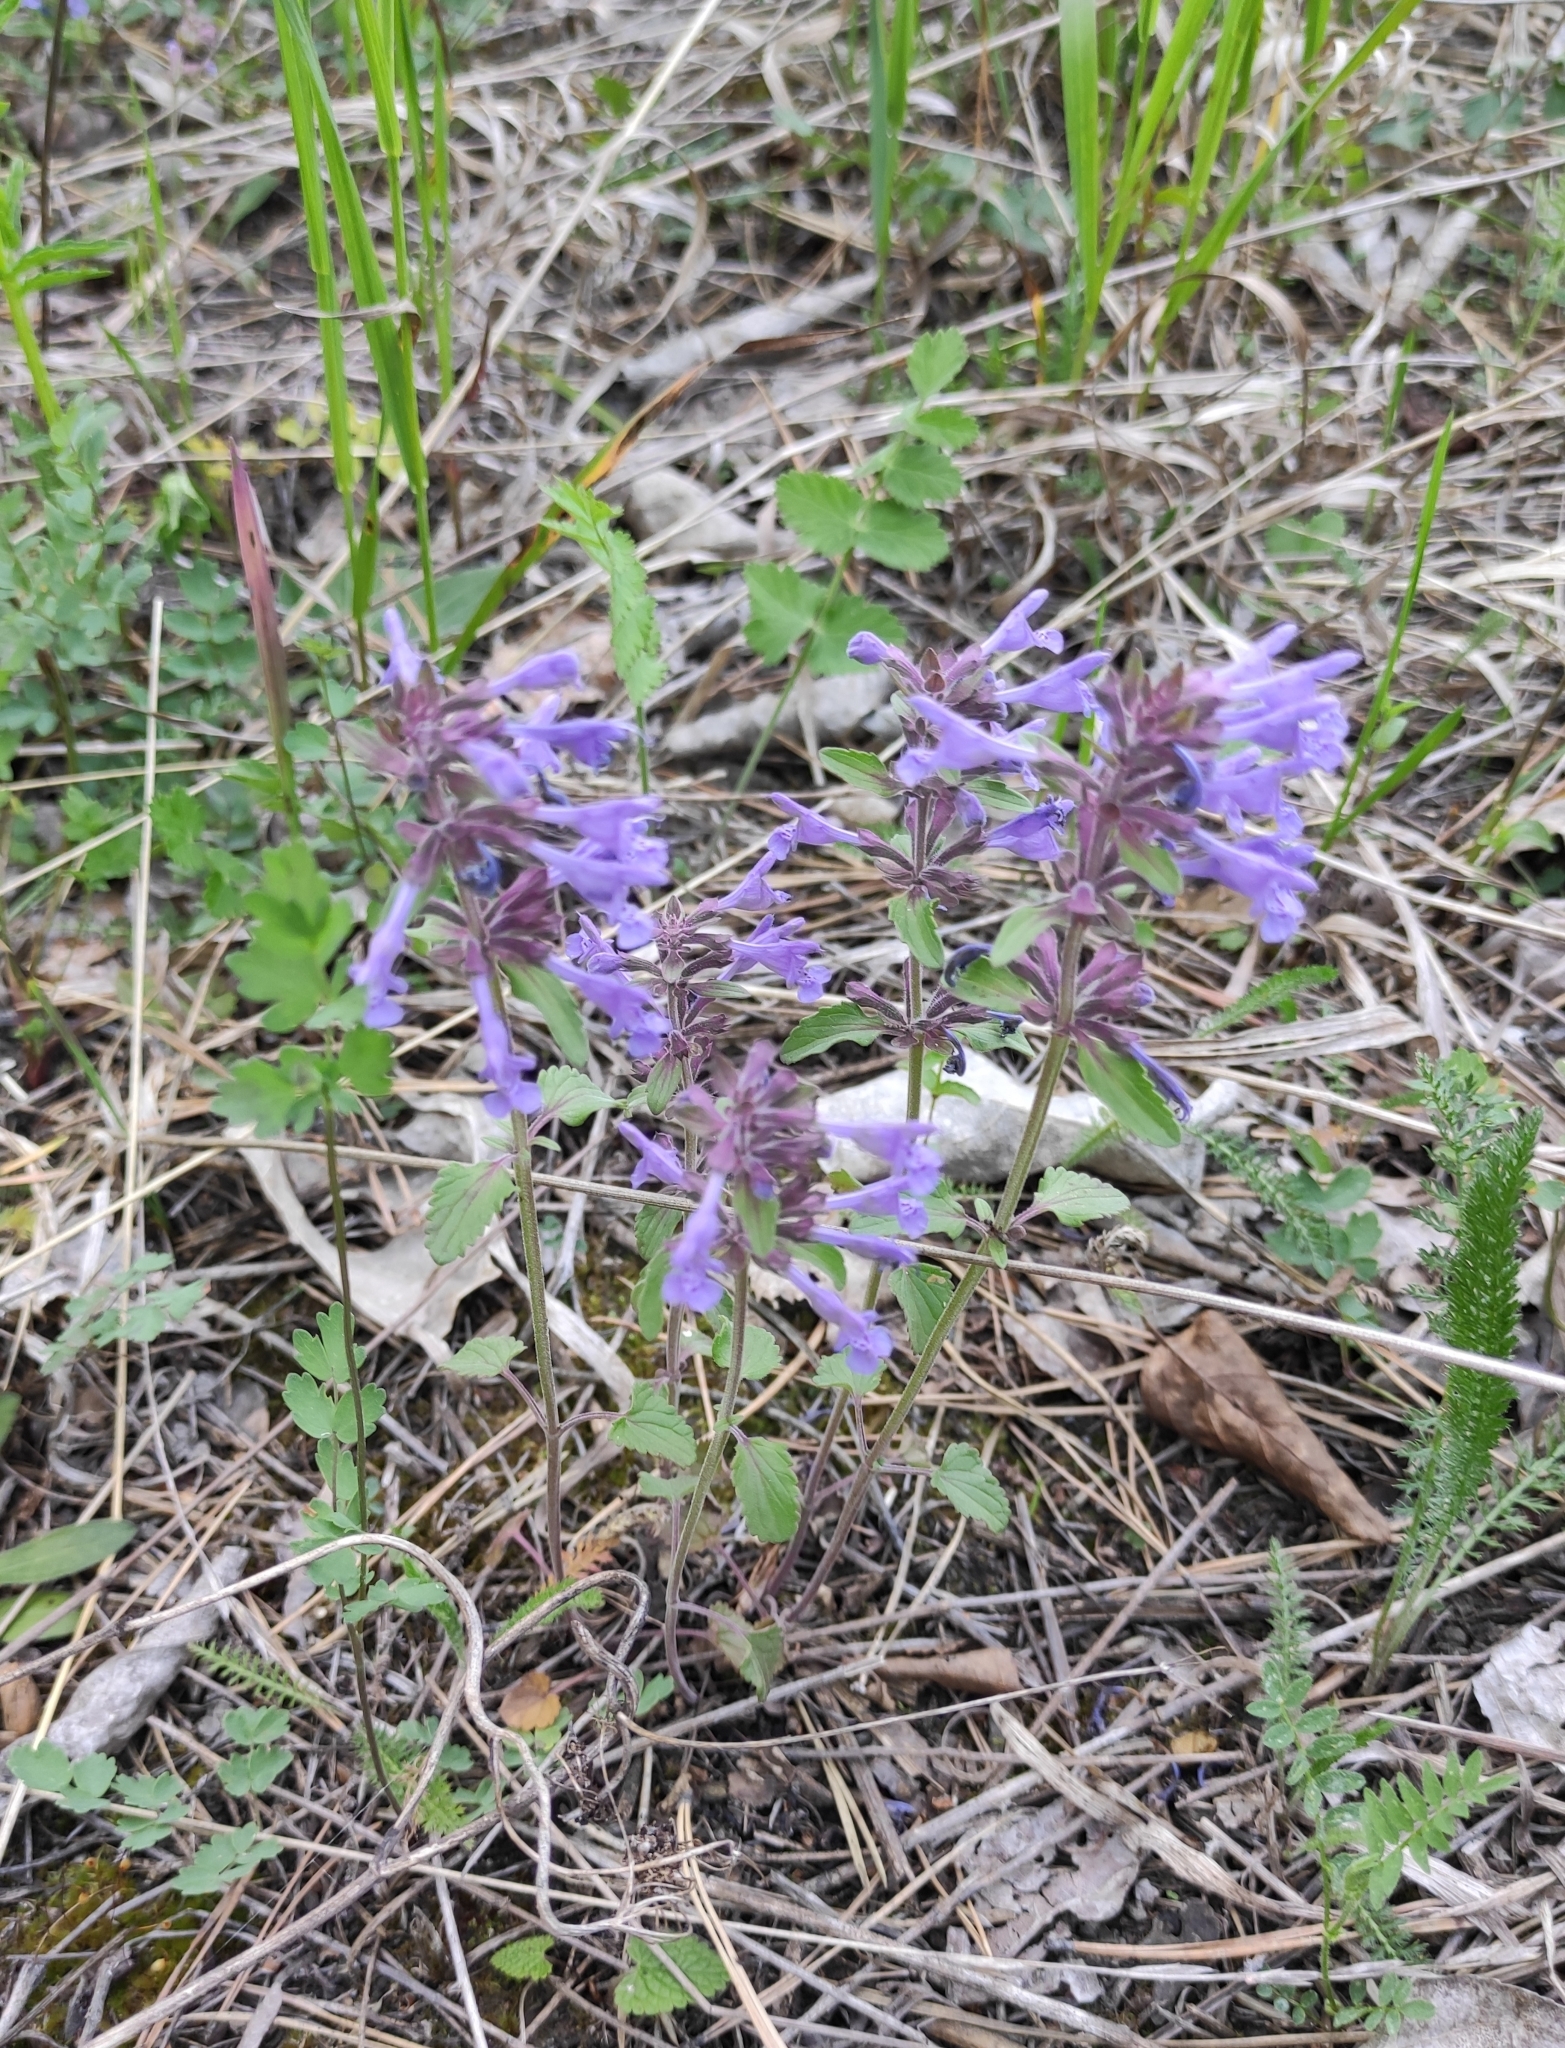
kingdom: Plantae
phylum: Tracheophyta
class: Magnoliopsida
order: Lamiales
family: Lamiaceae
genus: Dracocephalum
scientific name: Dracocephalum nutans
